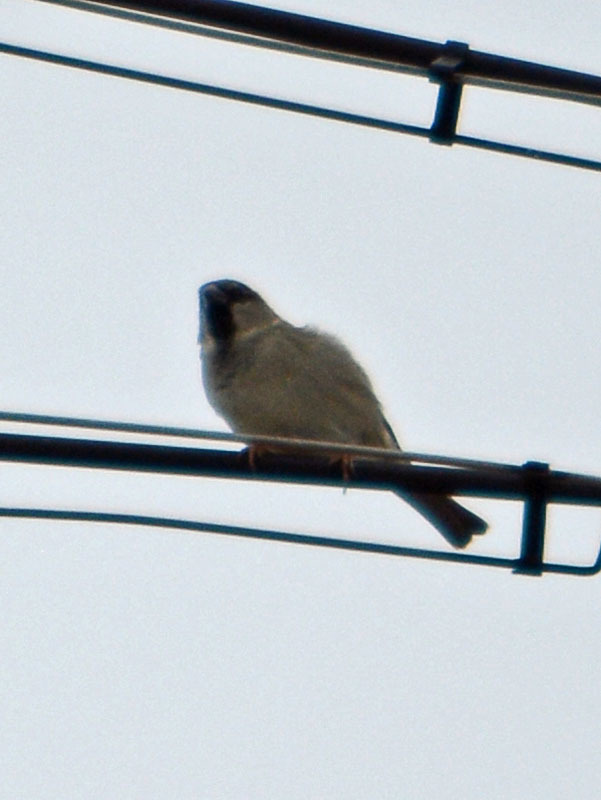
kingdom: Animalia
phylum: Chordata
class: Aves
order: Passeriformes
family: Passeridae
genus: Passer
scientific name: Passer domesticus
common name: House sparrow
